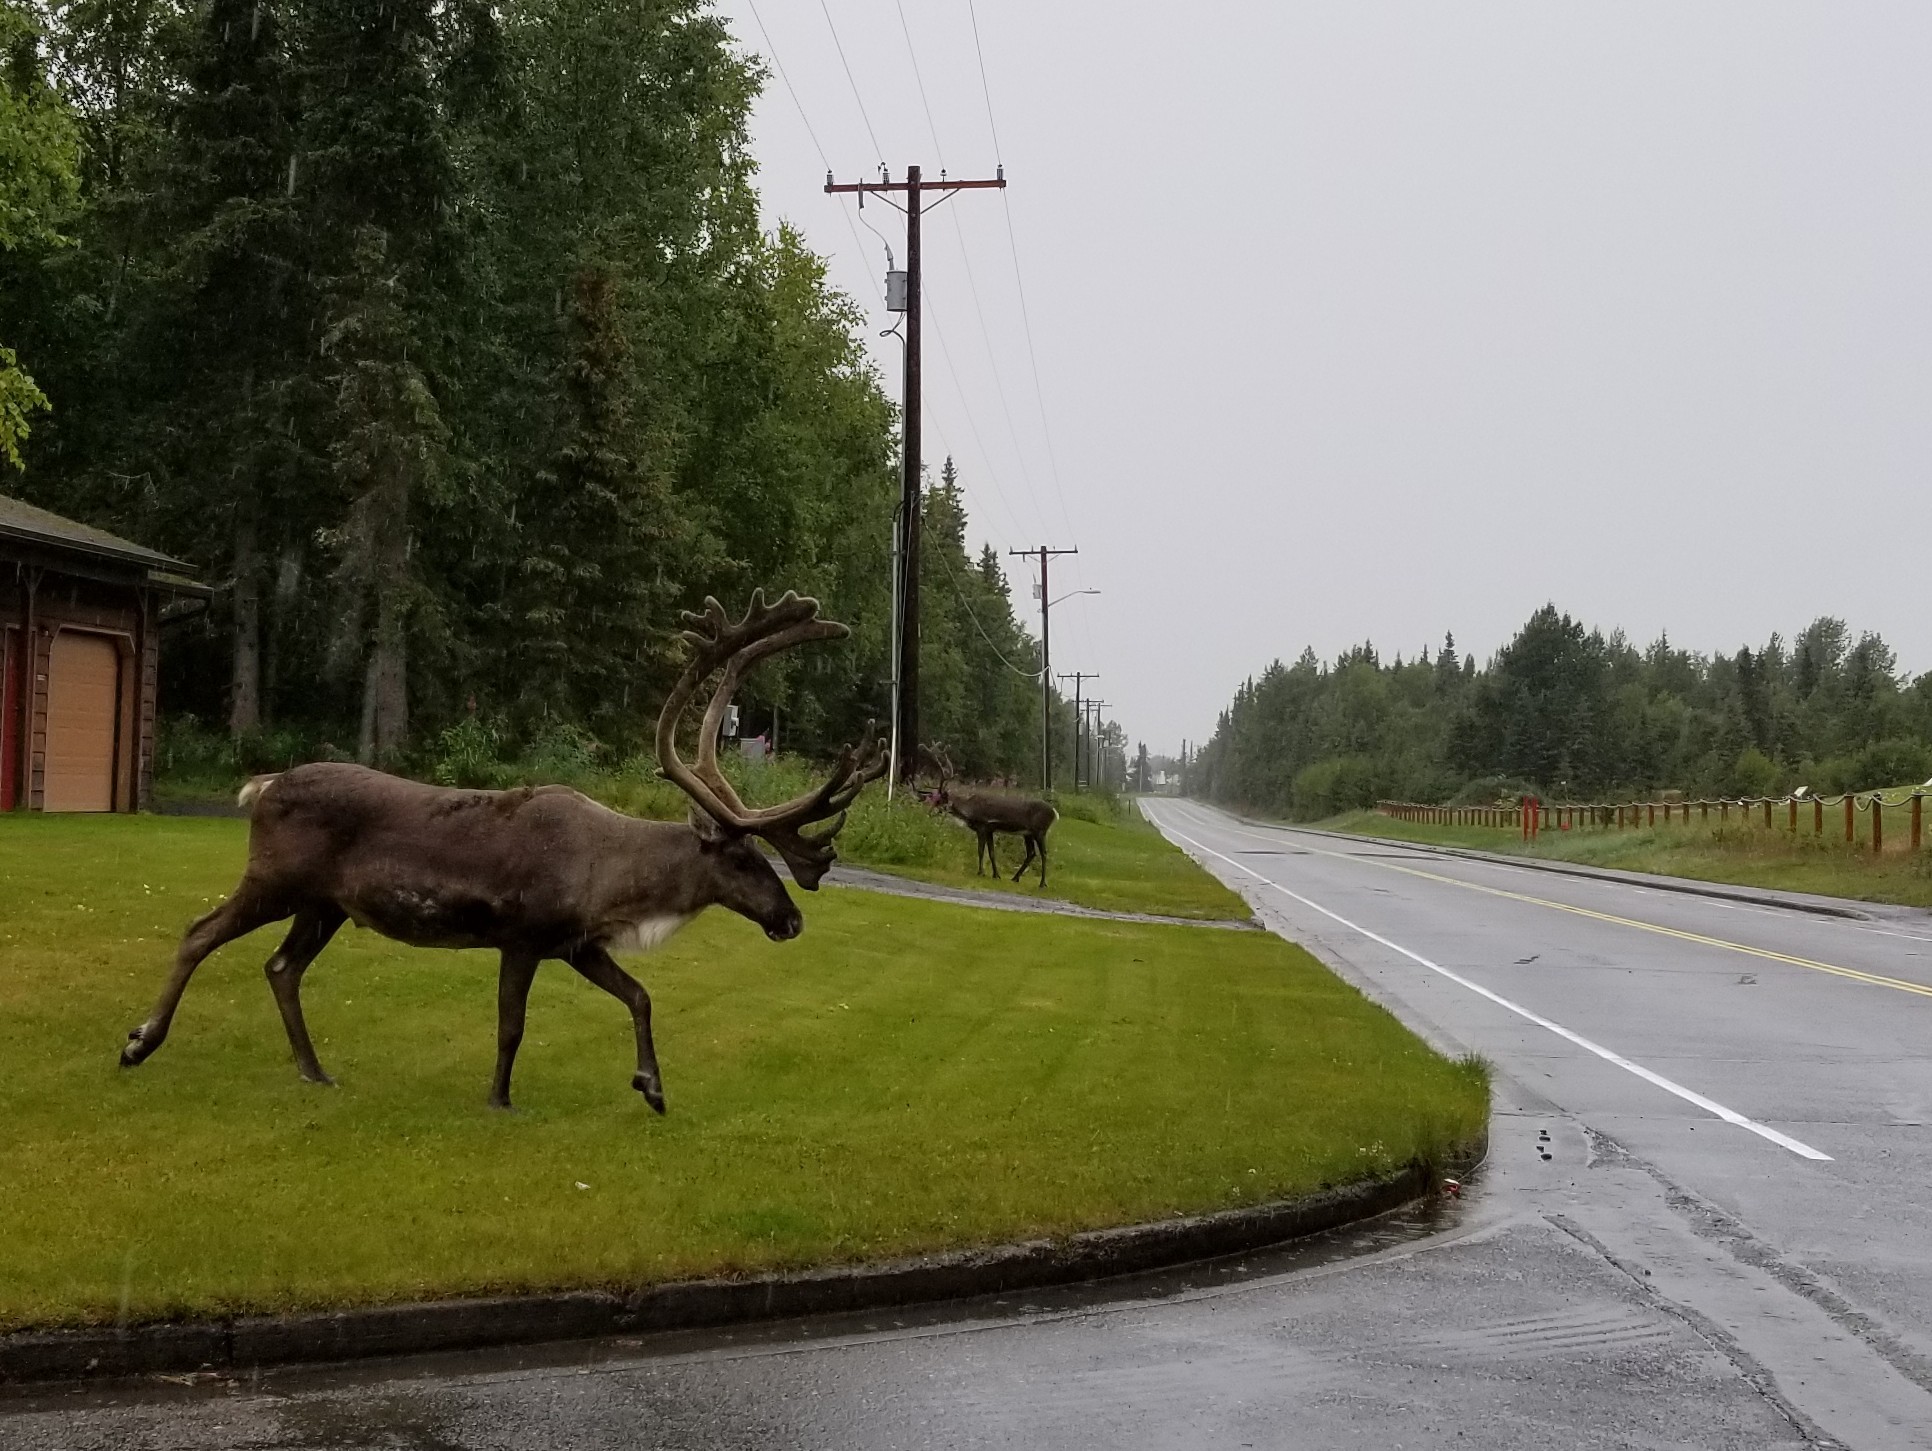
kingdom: Animalia
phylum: Chordata
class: Mammalia
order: Artiodactyla
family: Cervidae
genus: Rangifer
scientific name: Rangifer tarandus
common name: Reindeer
